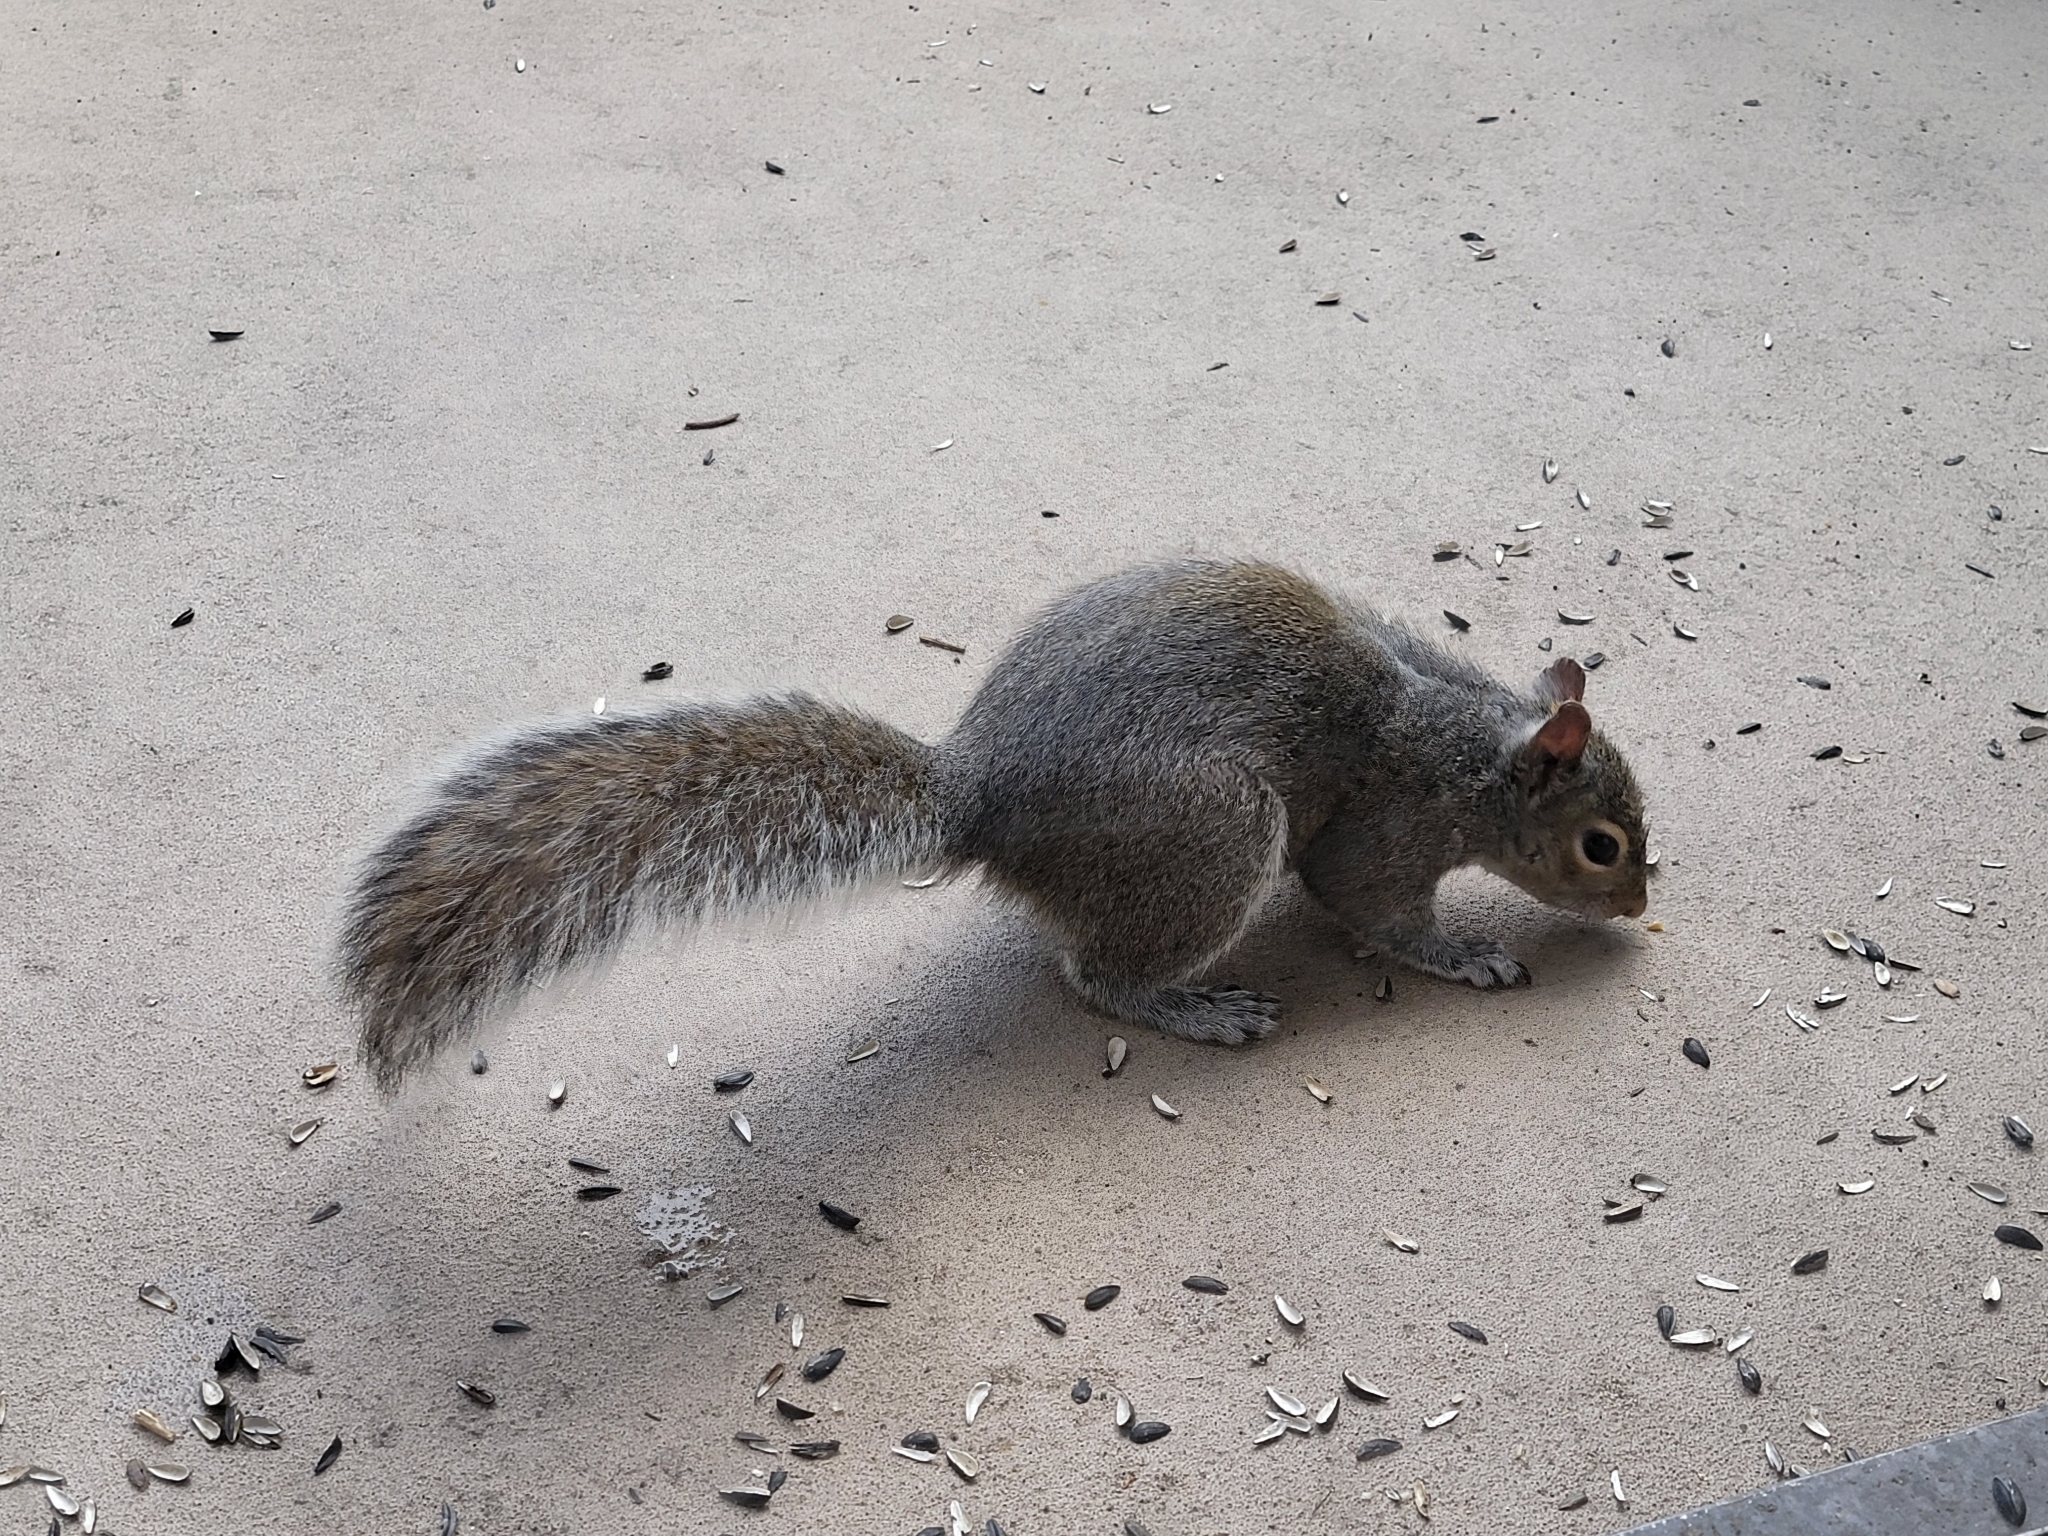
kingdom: Animalia
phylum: Chordata
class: Mammalia
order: Rodentia
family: Sciuridae
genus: Sciurus
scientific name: Sciurus carolinensis
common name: Eastern gray squirrel
